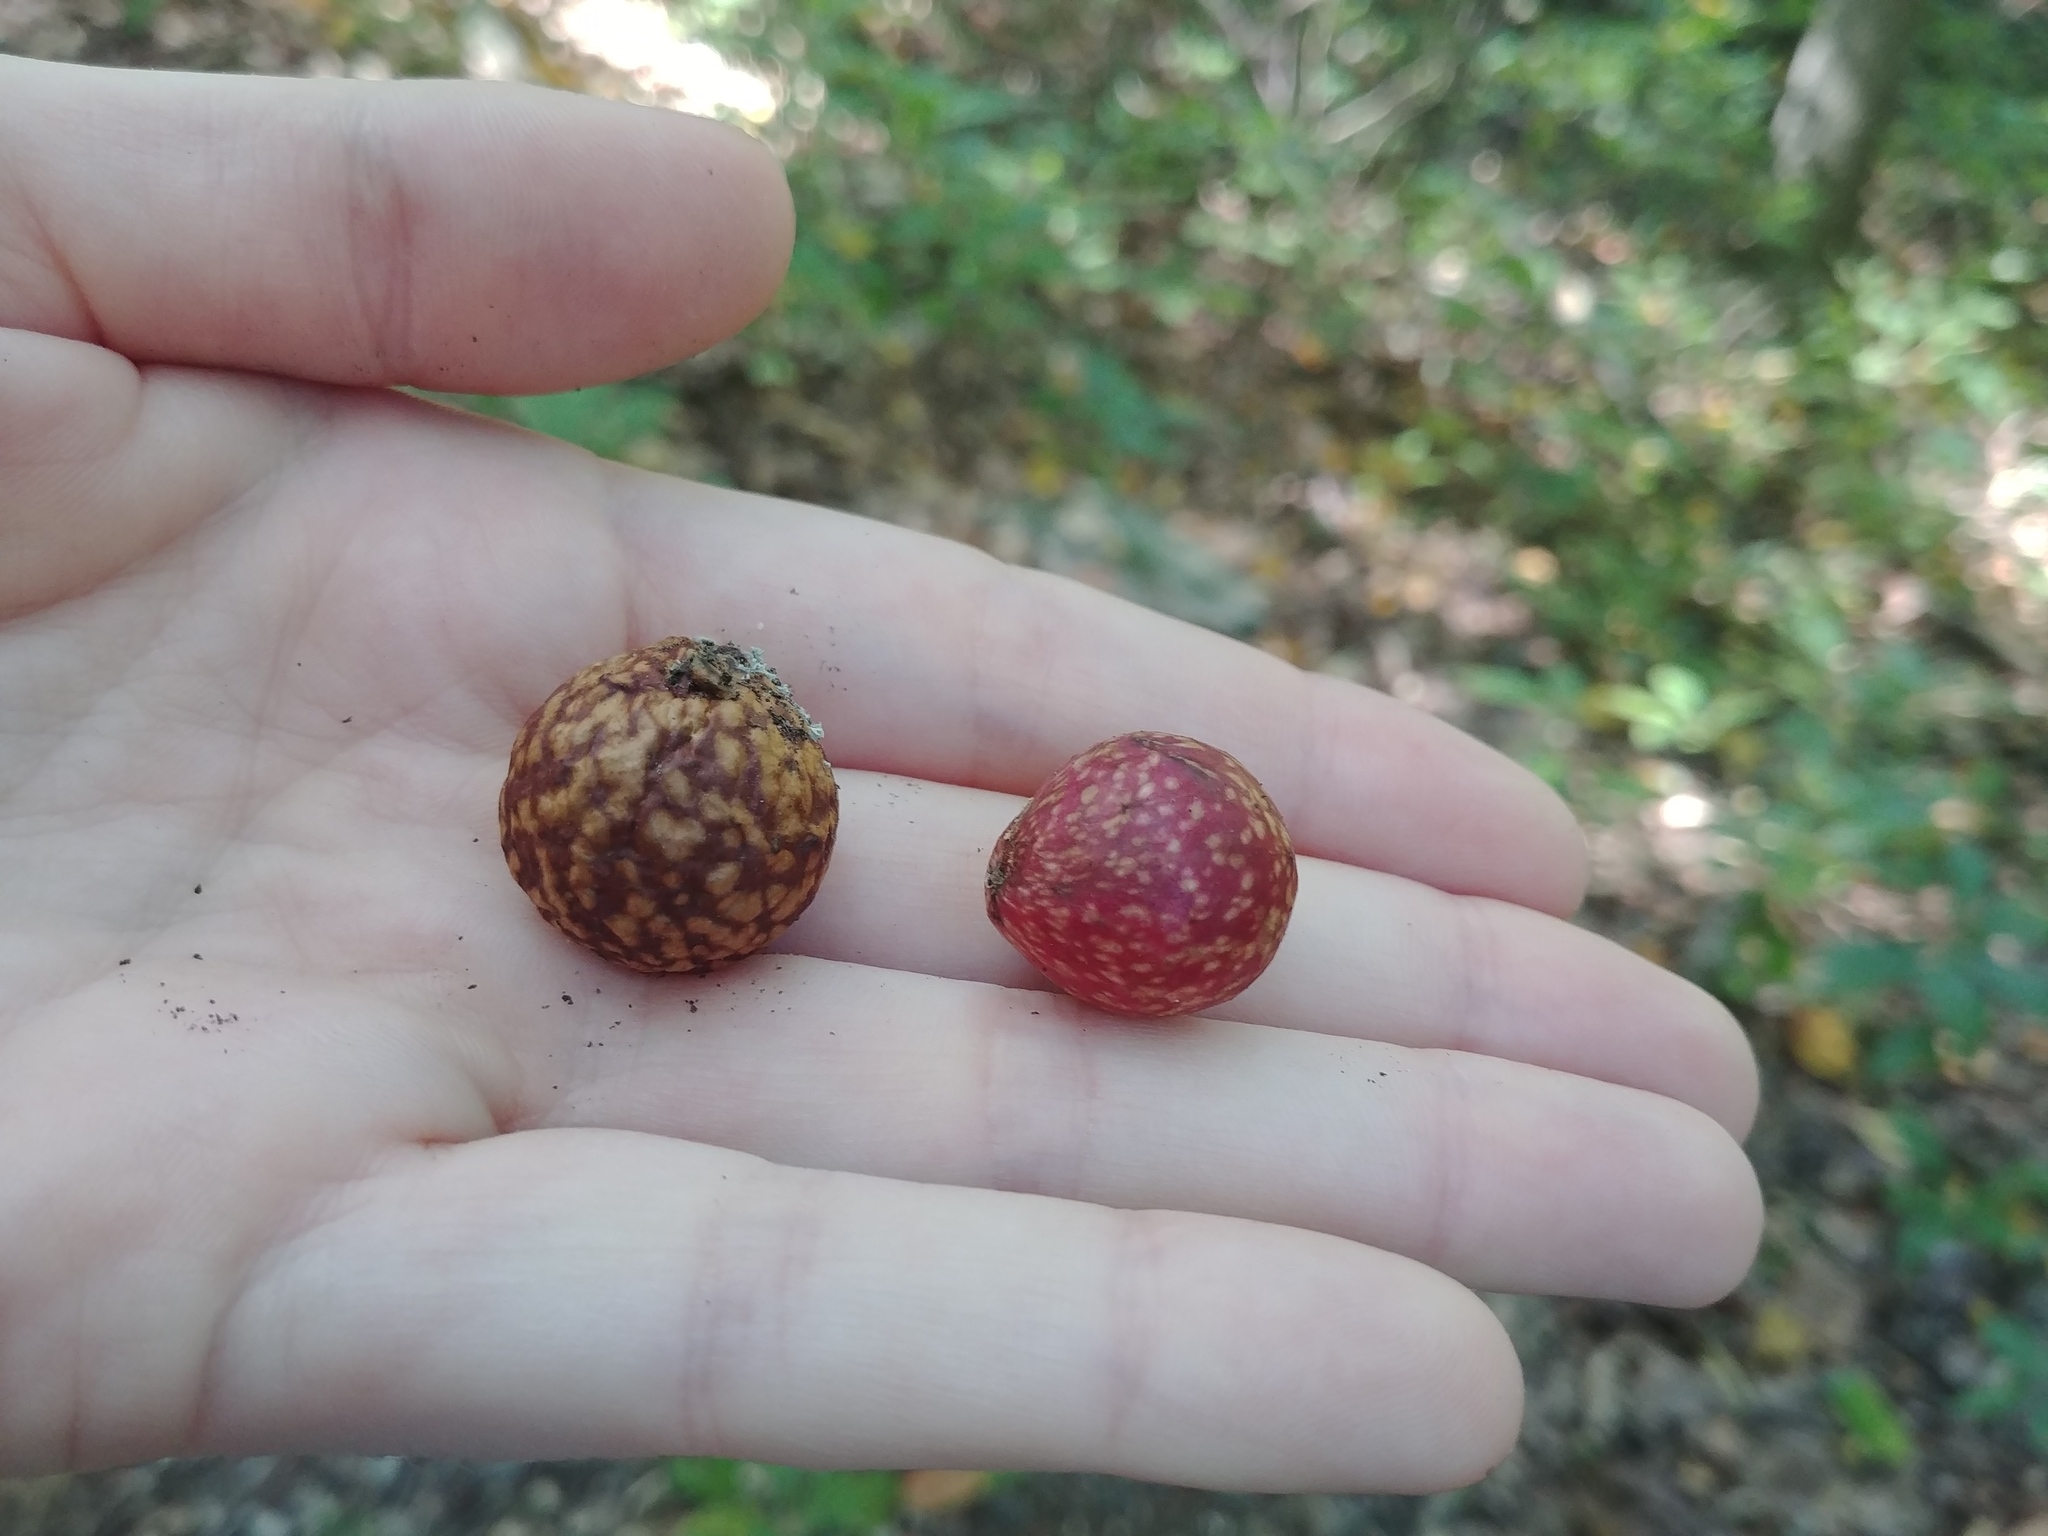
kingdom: Animalia
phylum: Arthropoda
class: Insecta
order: Hymenoptera
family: Cynipidae
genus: Amphibolips
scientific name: Amphibolips
